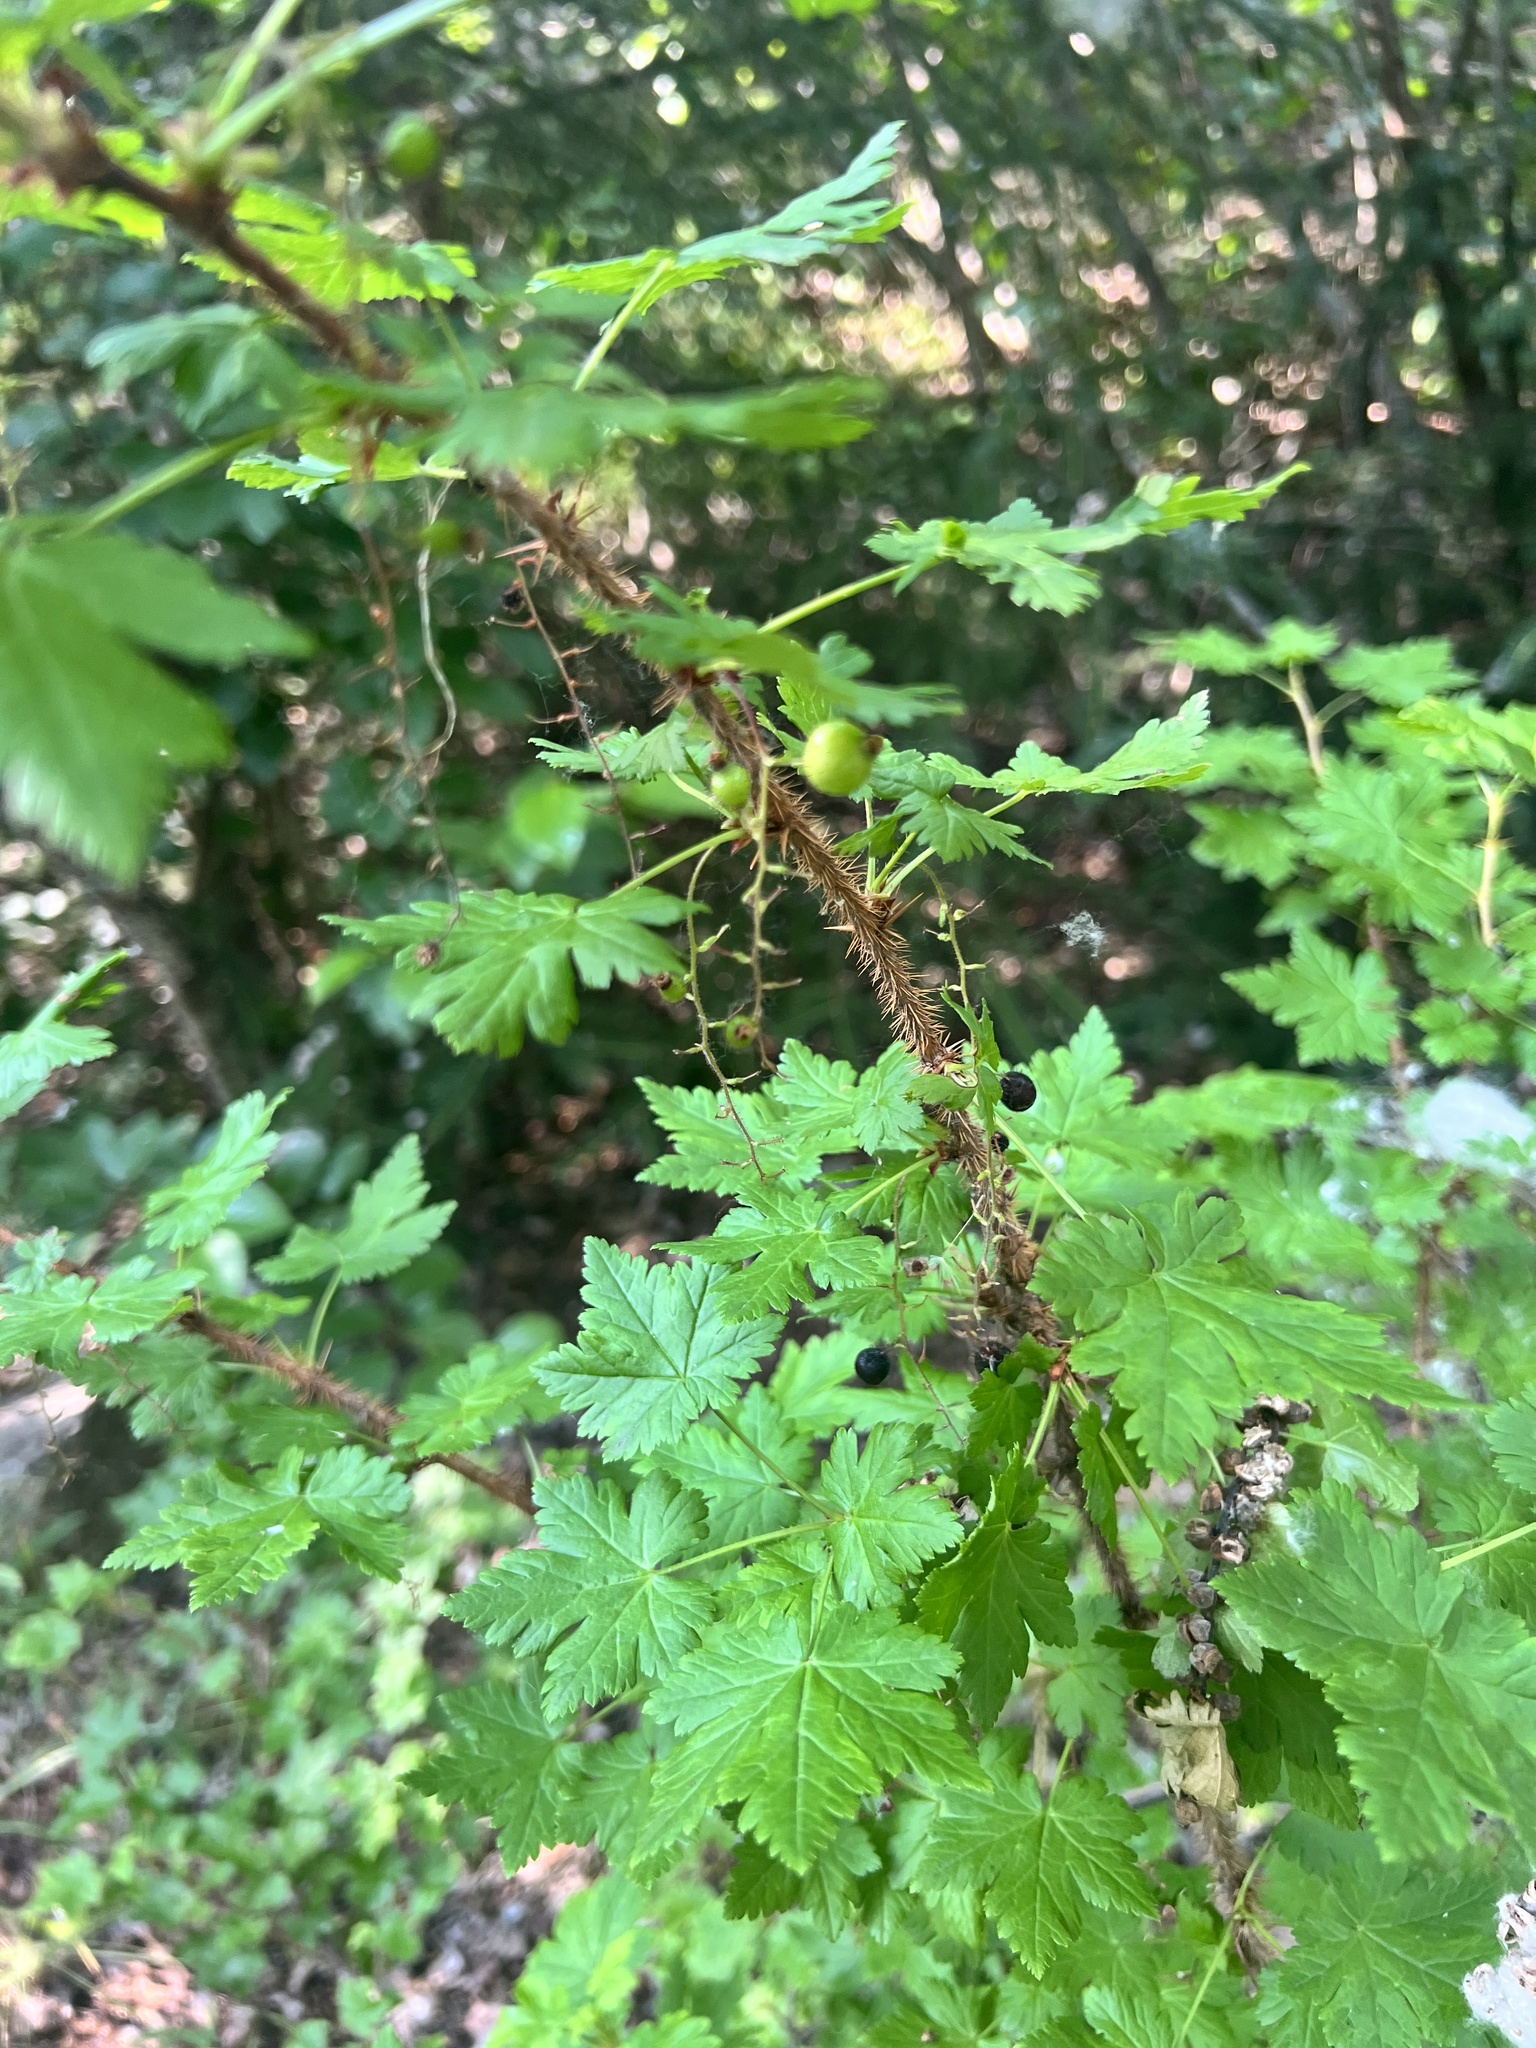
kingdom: Plantae
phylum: Tracheophyta
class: Magnoliopsida
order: Saxifragales
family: Grossulariaceae
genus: Ribes
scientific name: Ribes lacustre
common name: Black gooseberry
